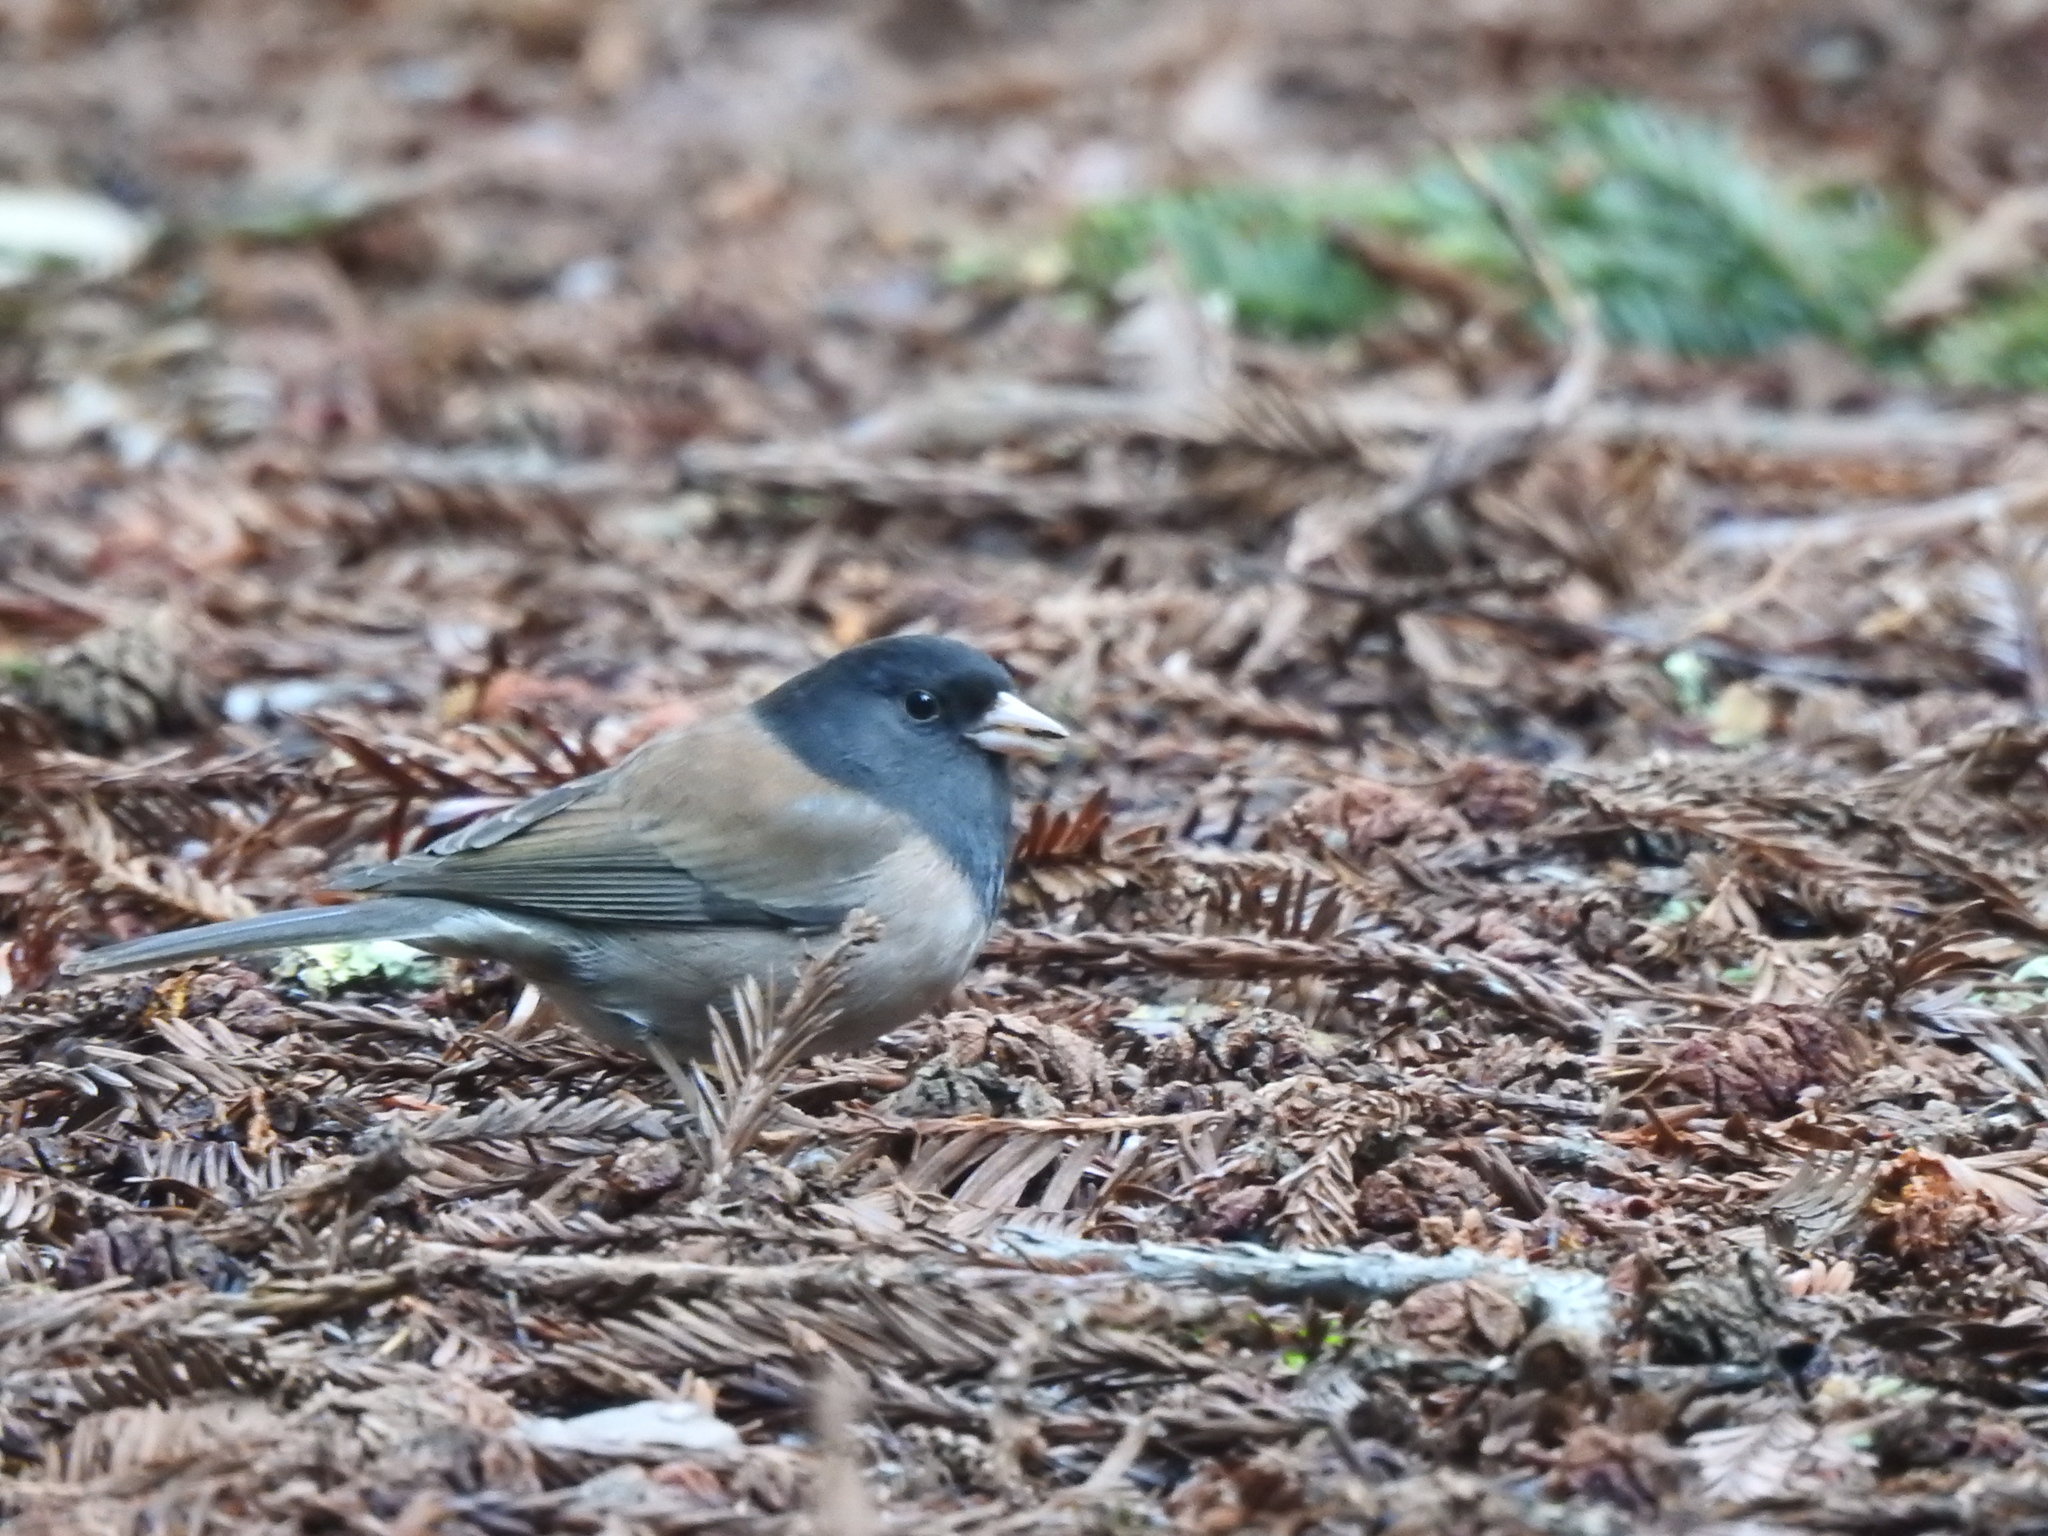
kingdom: Animalia
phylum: Chordata
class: Aves
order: Passeriformes
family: Passerellidae
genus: Junco
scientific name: Junco hyemalis
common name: Dark-eyed junco
